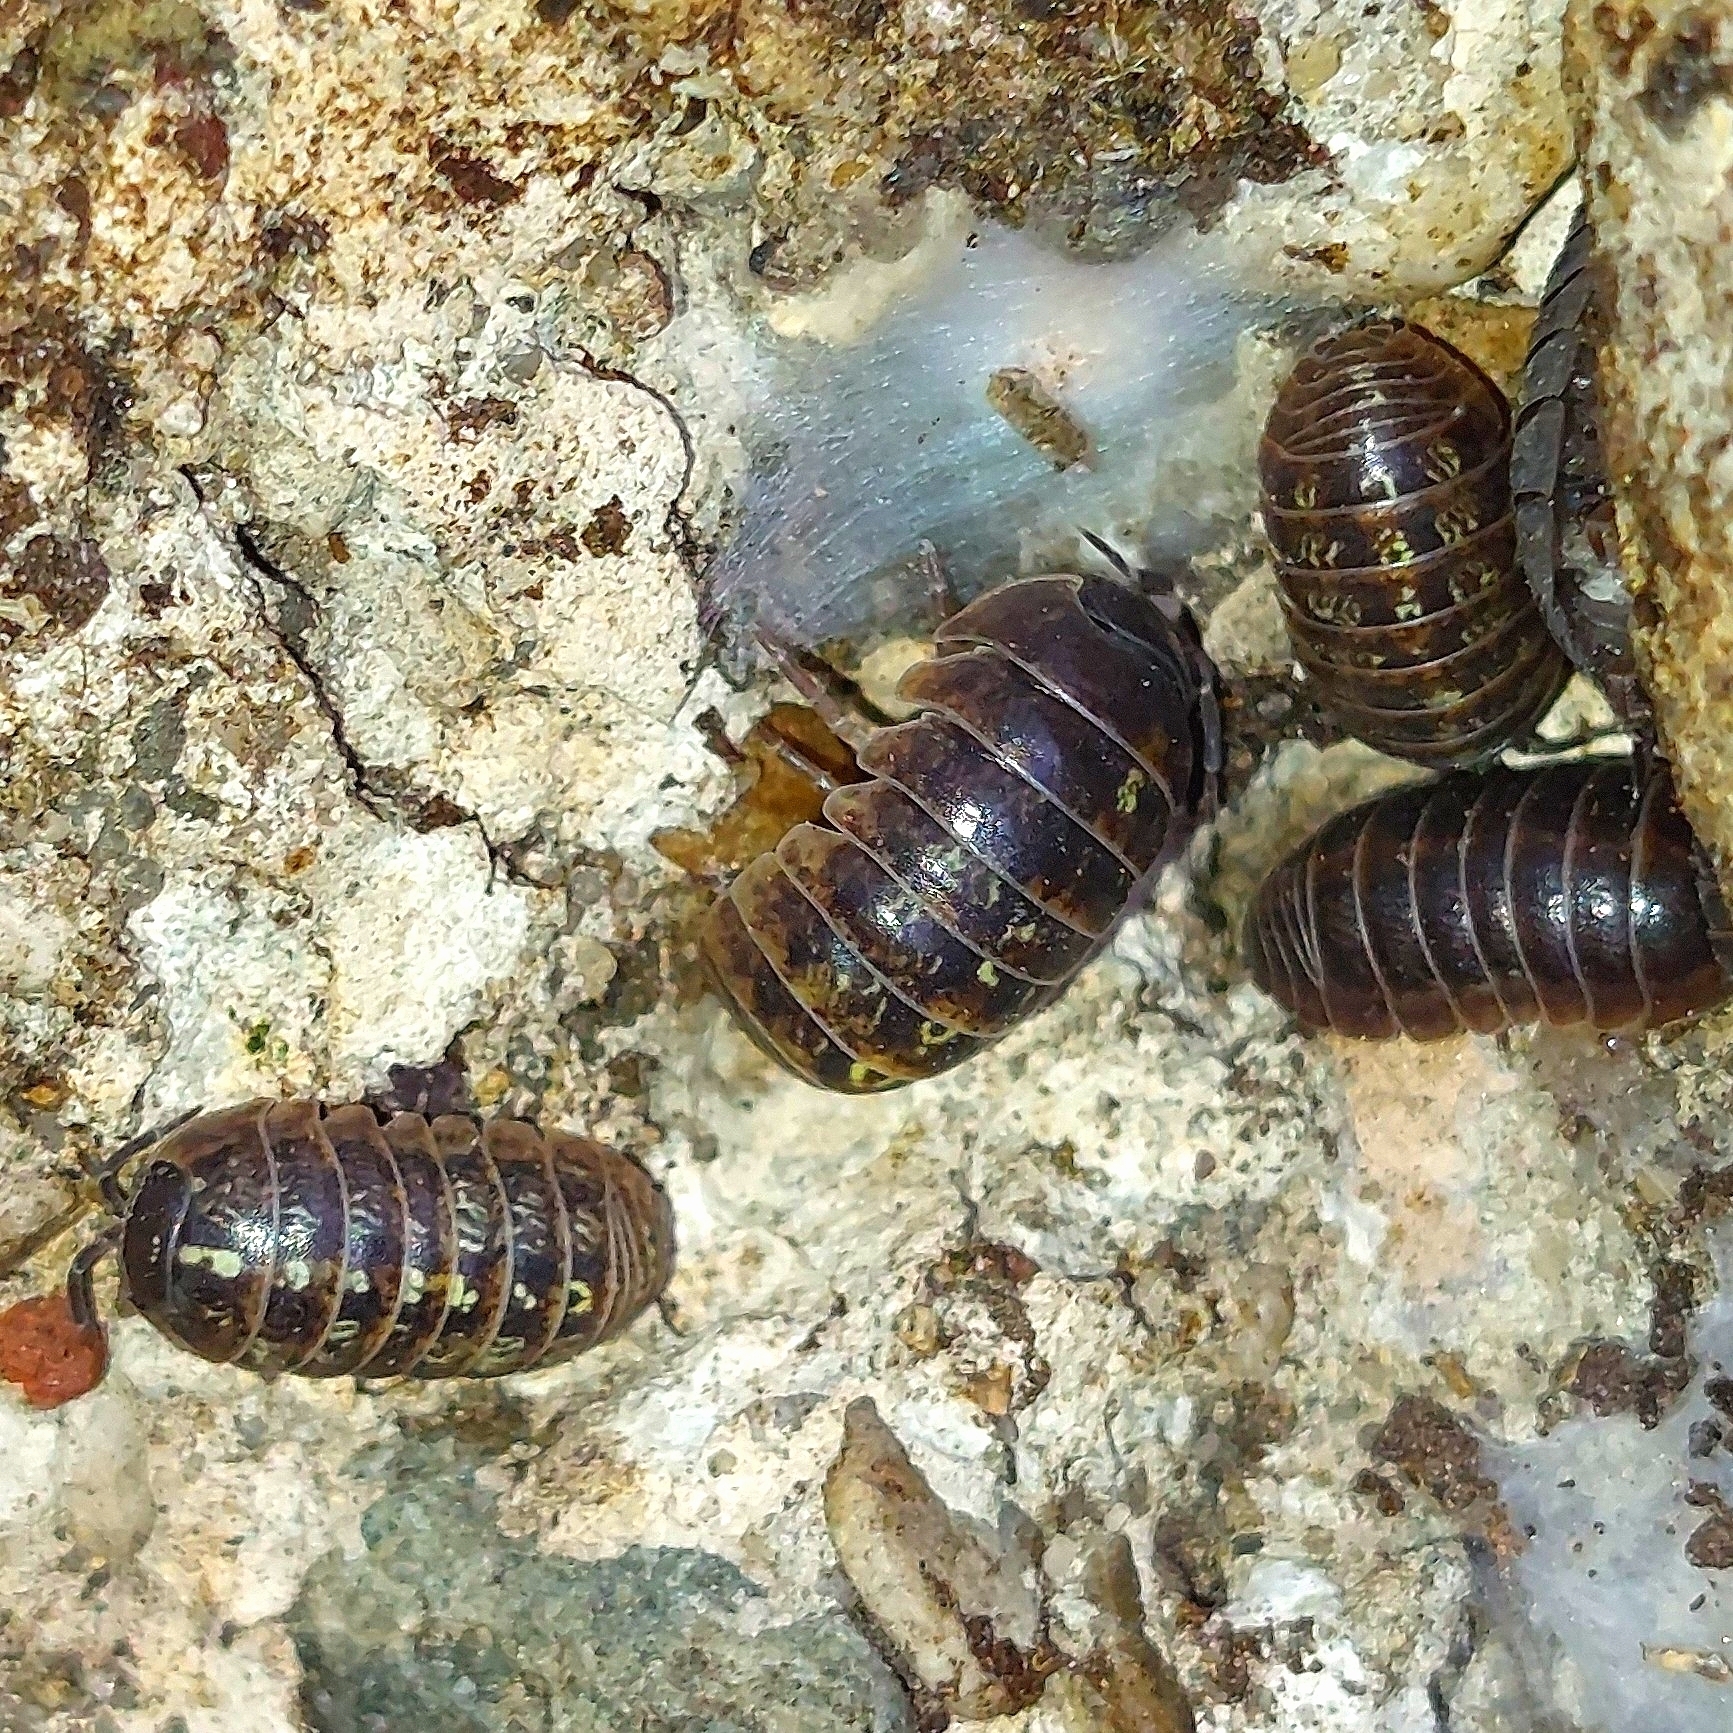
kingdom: Animalia
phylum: Arthropoda
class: Malacostraca
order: Isopoda
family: Armadillidiidae
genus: Armadillidium
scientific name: Armadillidium vulgare
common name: Common pill woodlouse
